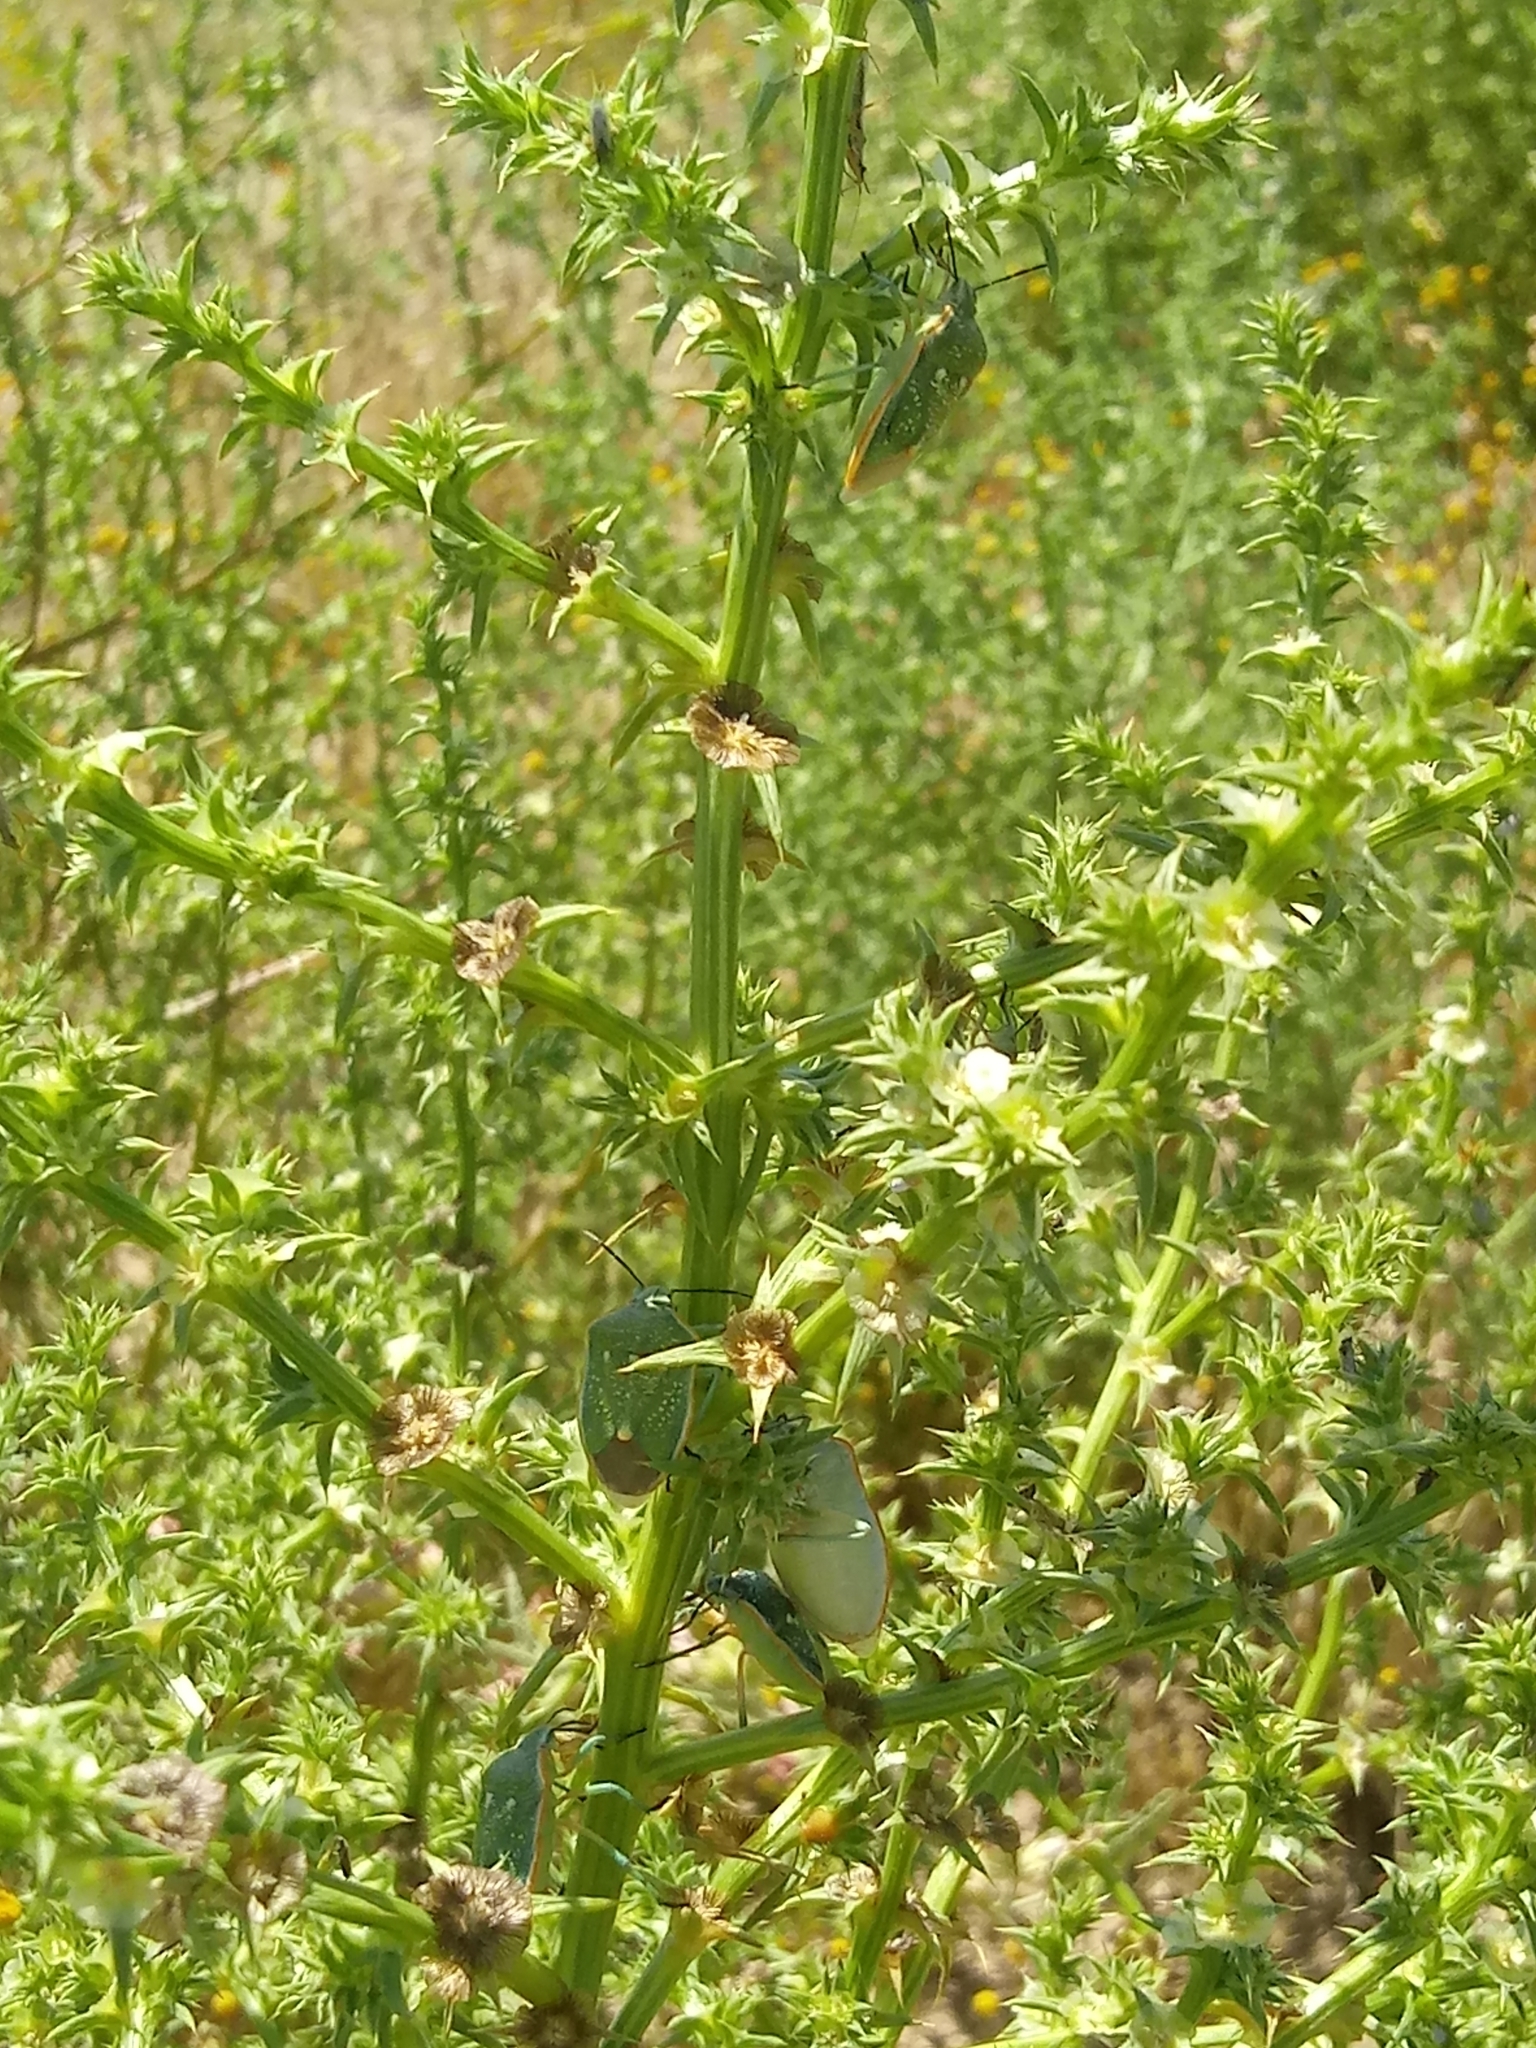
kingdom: Animalia
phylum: Arthropoda
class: Insecta
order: Hemiptera
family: Pentatomidae
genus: Chlorochroa
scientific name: Chlorochroa sayi
